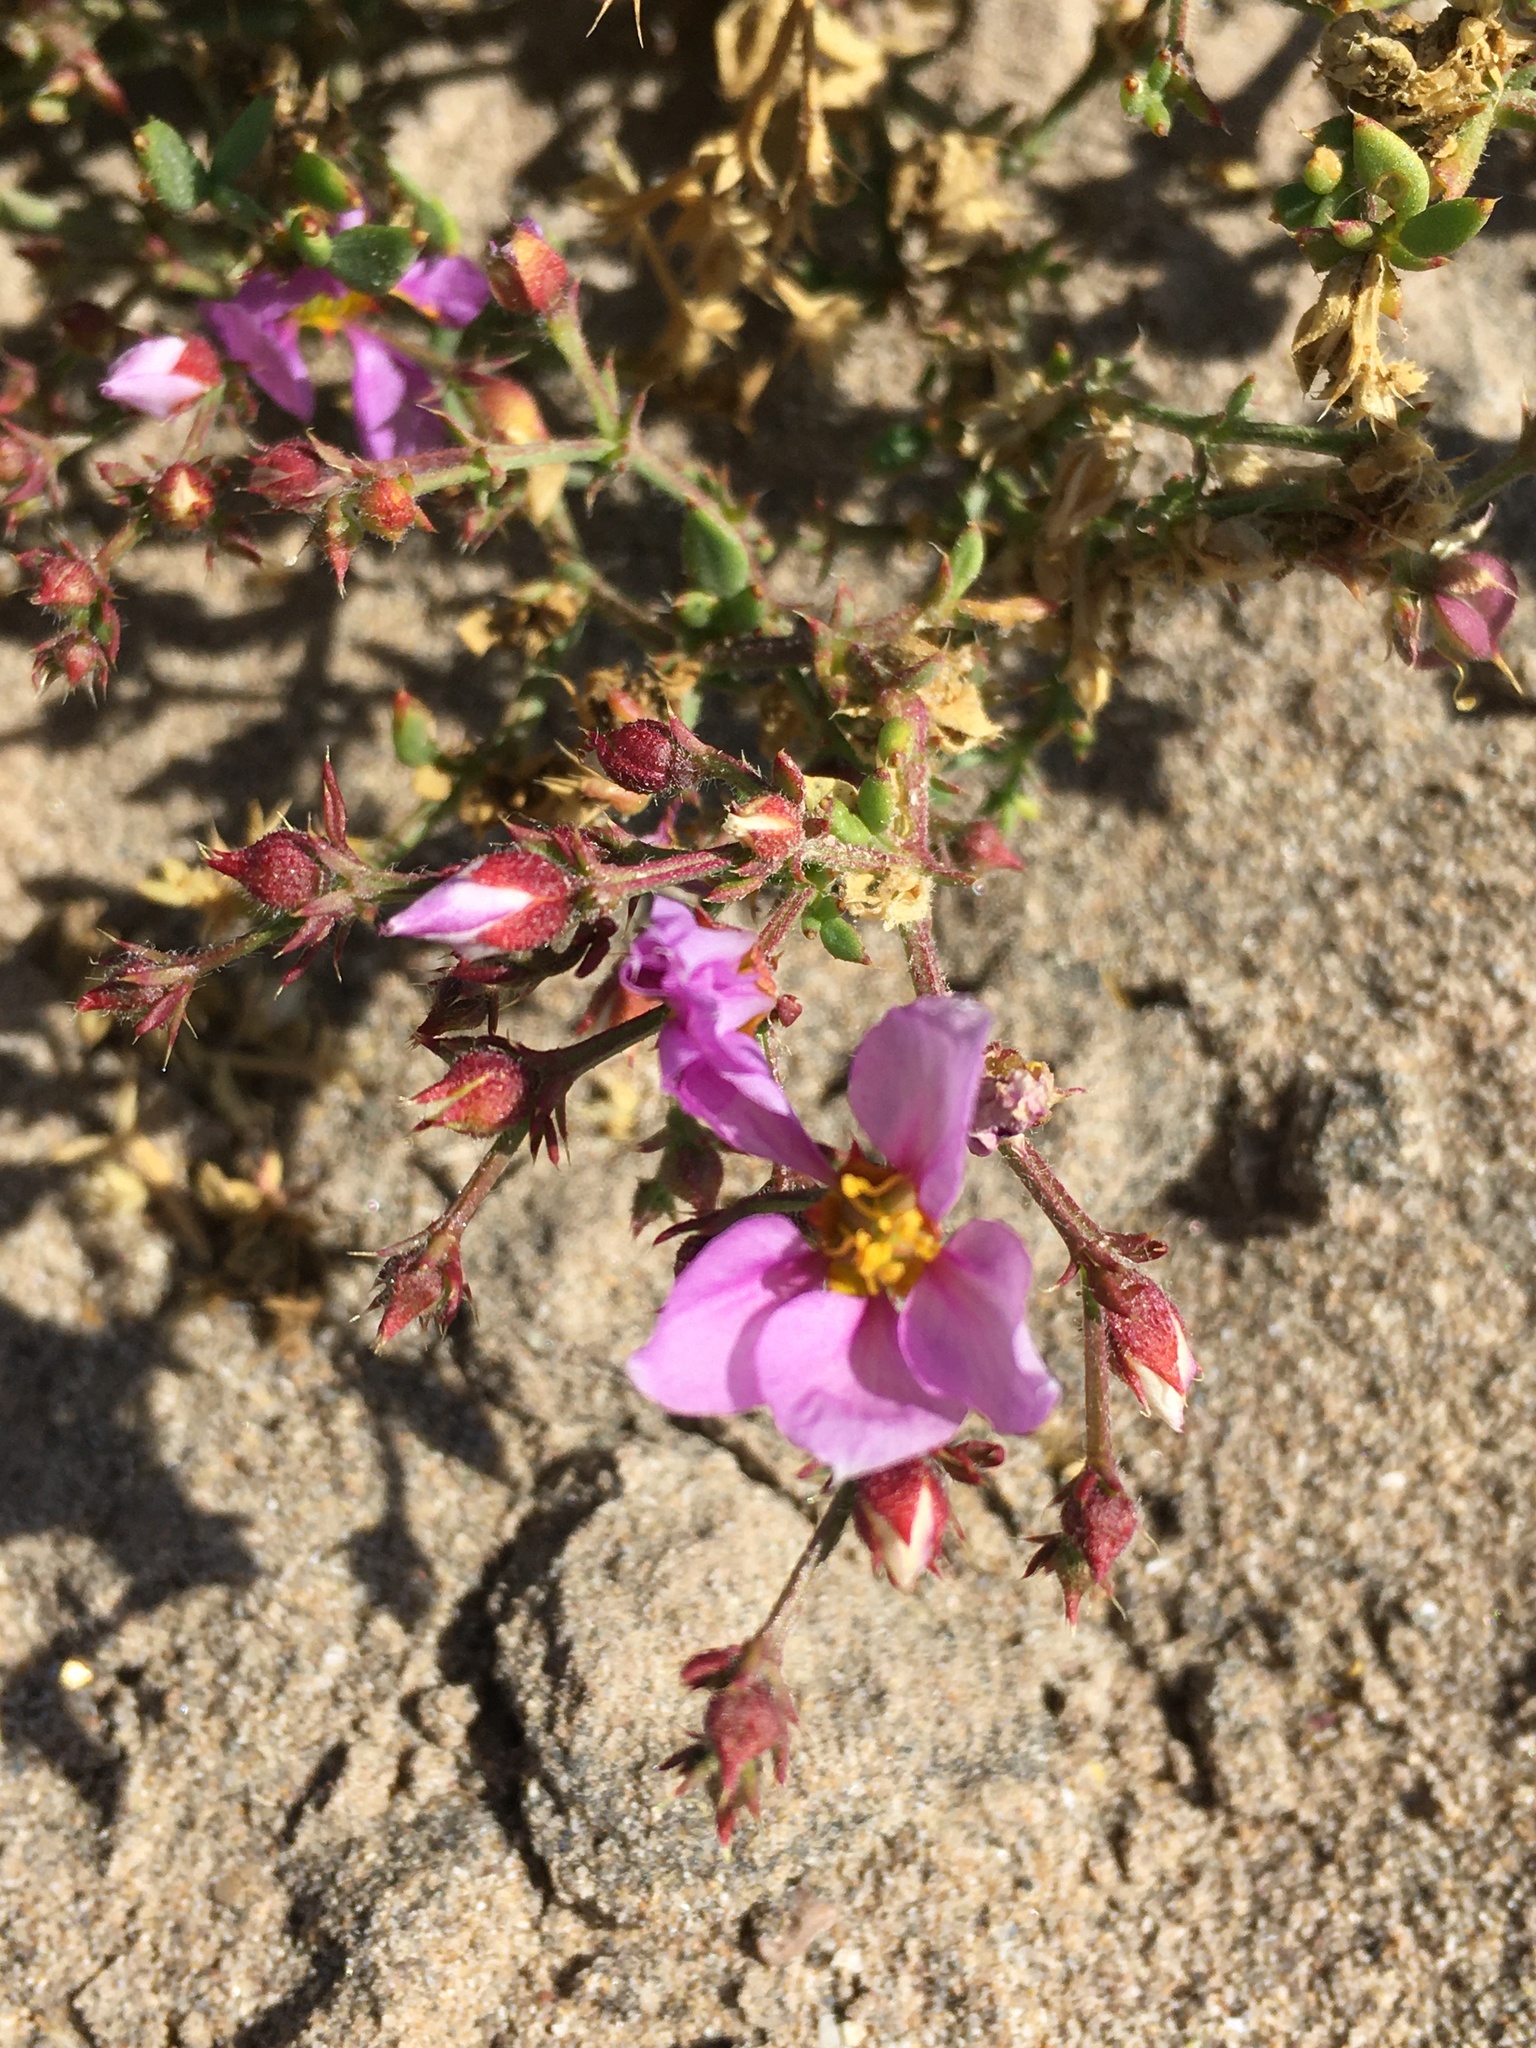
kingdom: Plantae
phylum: Tracheophyta
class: Magnoliopsida
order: Zygophyllales
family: Zygophyllaceae
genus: Fagonia
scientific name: Fagonia chilensis
